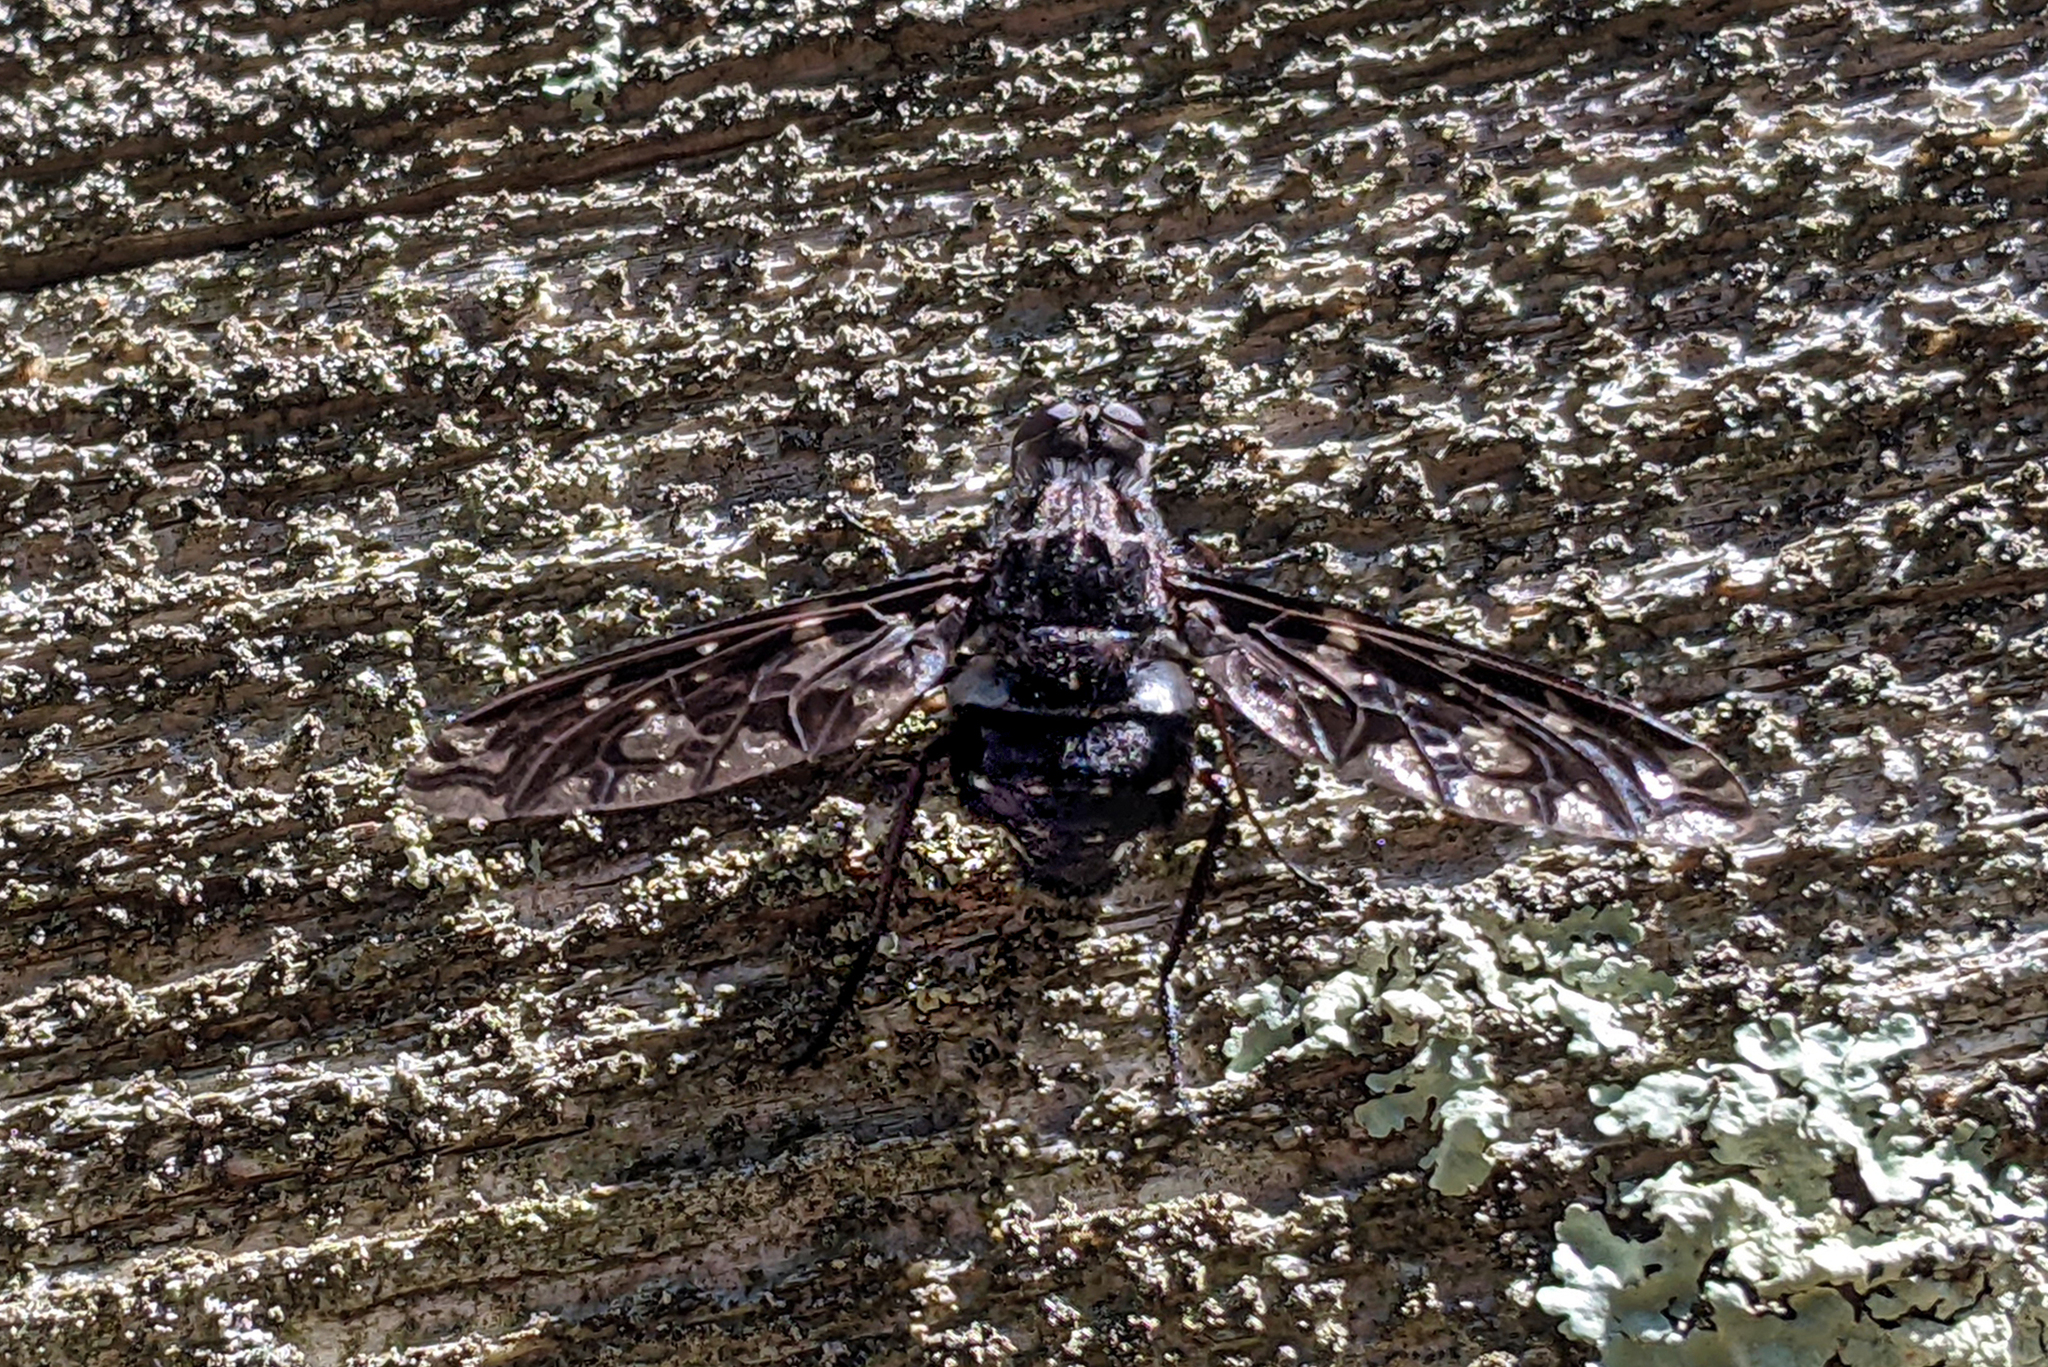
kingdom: Animalia
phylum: Arthropoda
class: Insecta
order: Diptera
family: Bombyliidae
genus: Xenox
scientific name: Xenox tigrinus
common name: Tiger bee fly
